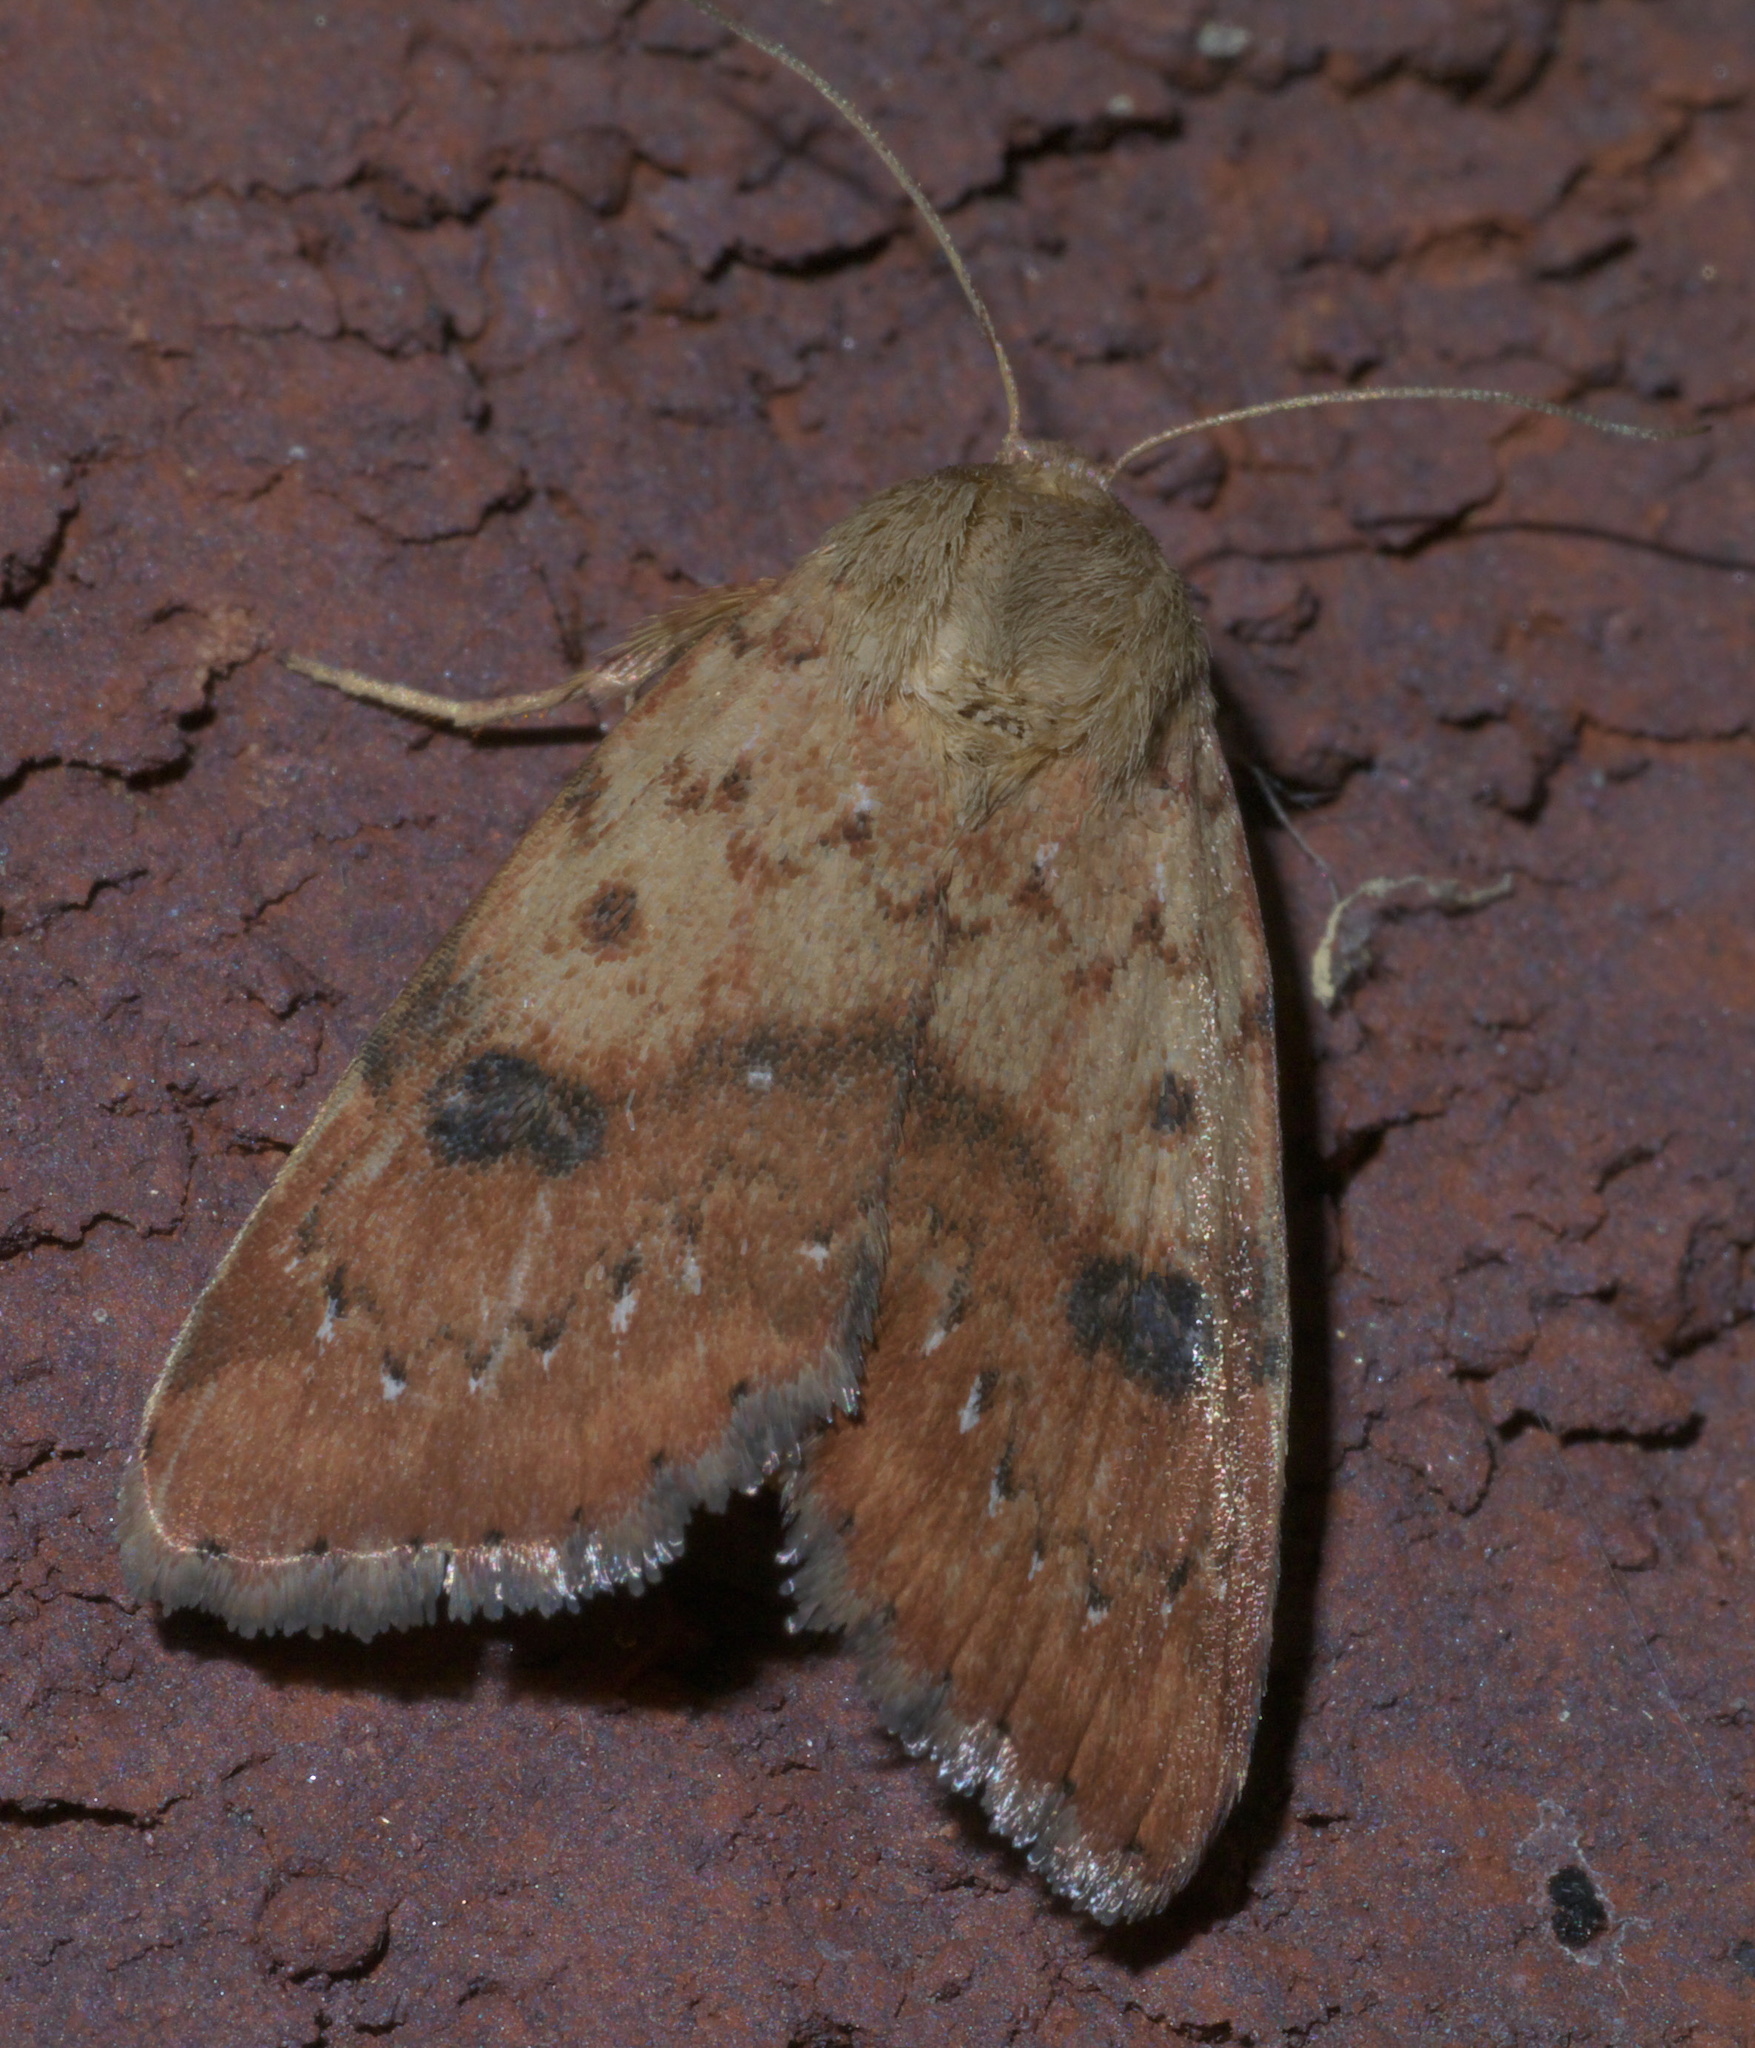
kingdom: Animalia
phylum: Arthropoda
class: Insecta
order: Lepidoptera
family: Noctuidae
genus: Heliocheilus
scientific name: Heliocheilus lupata
